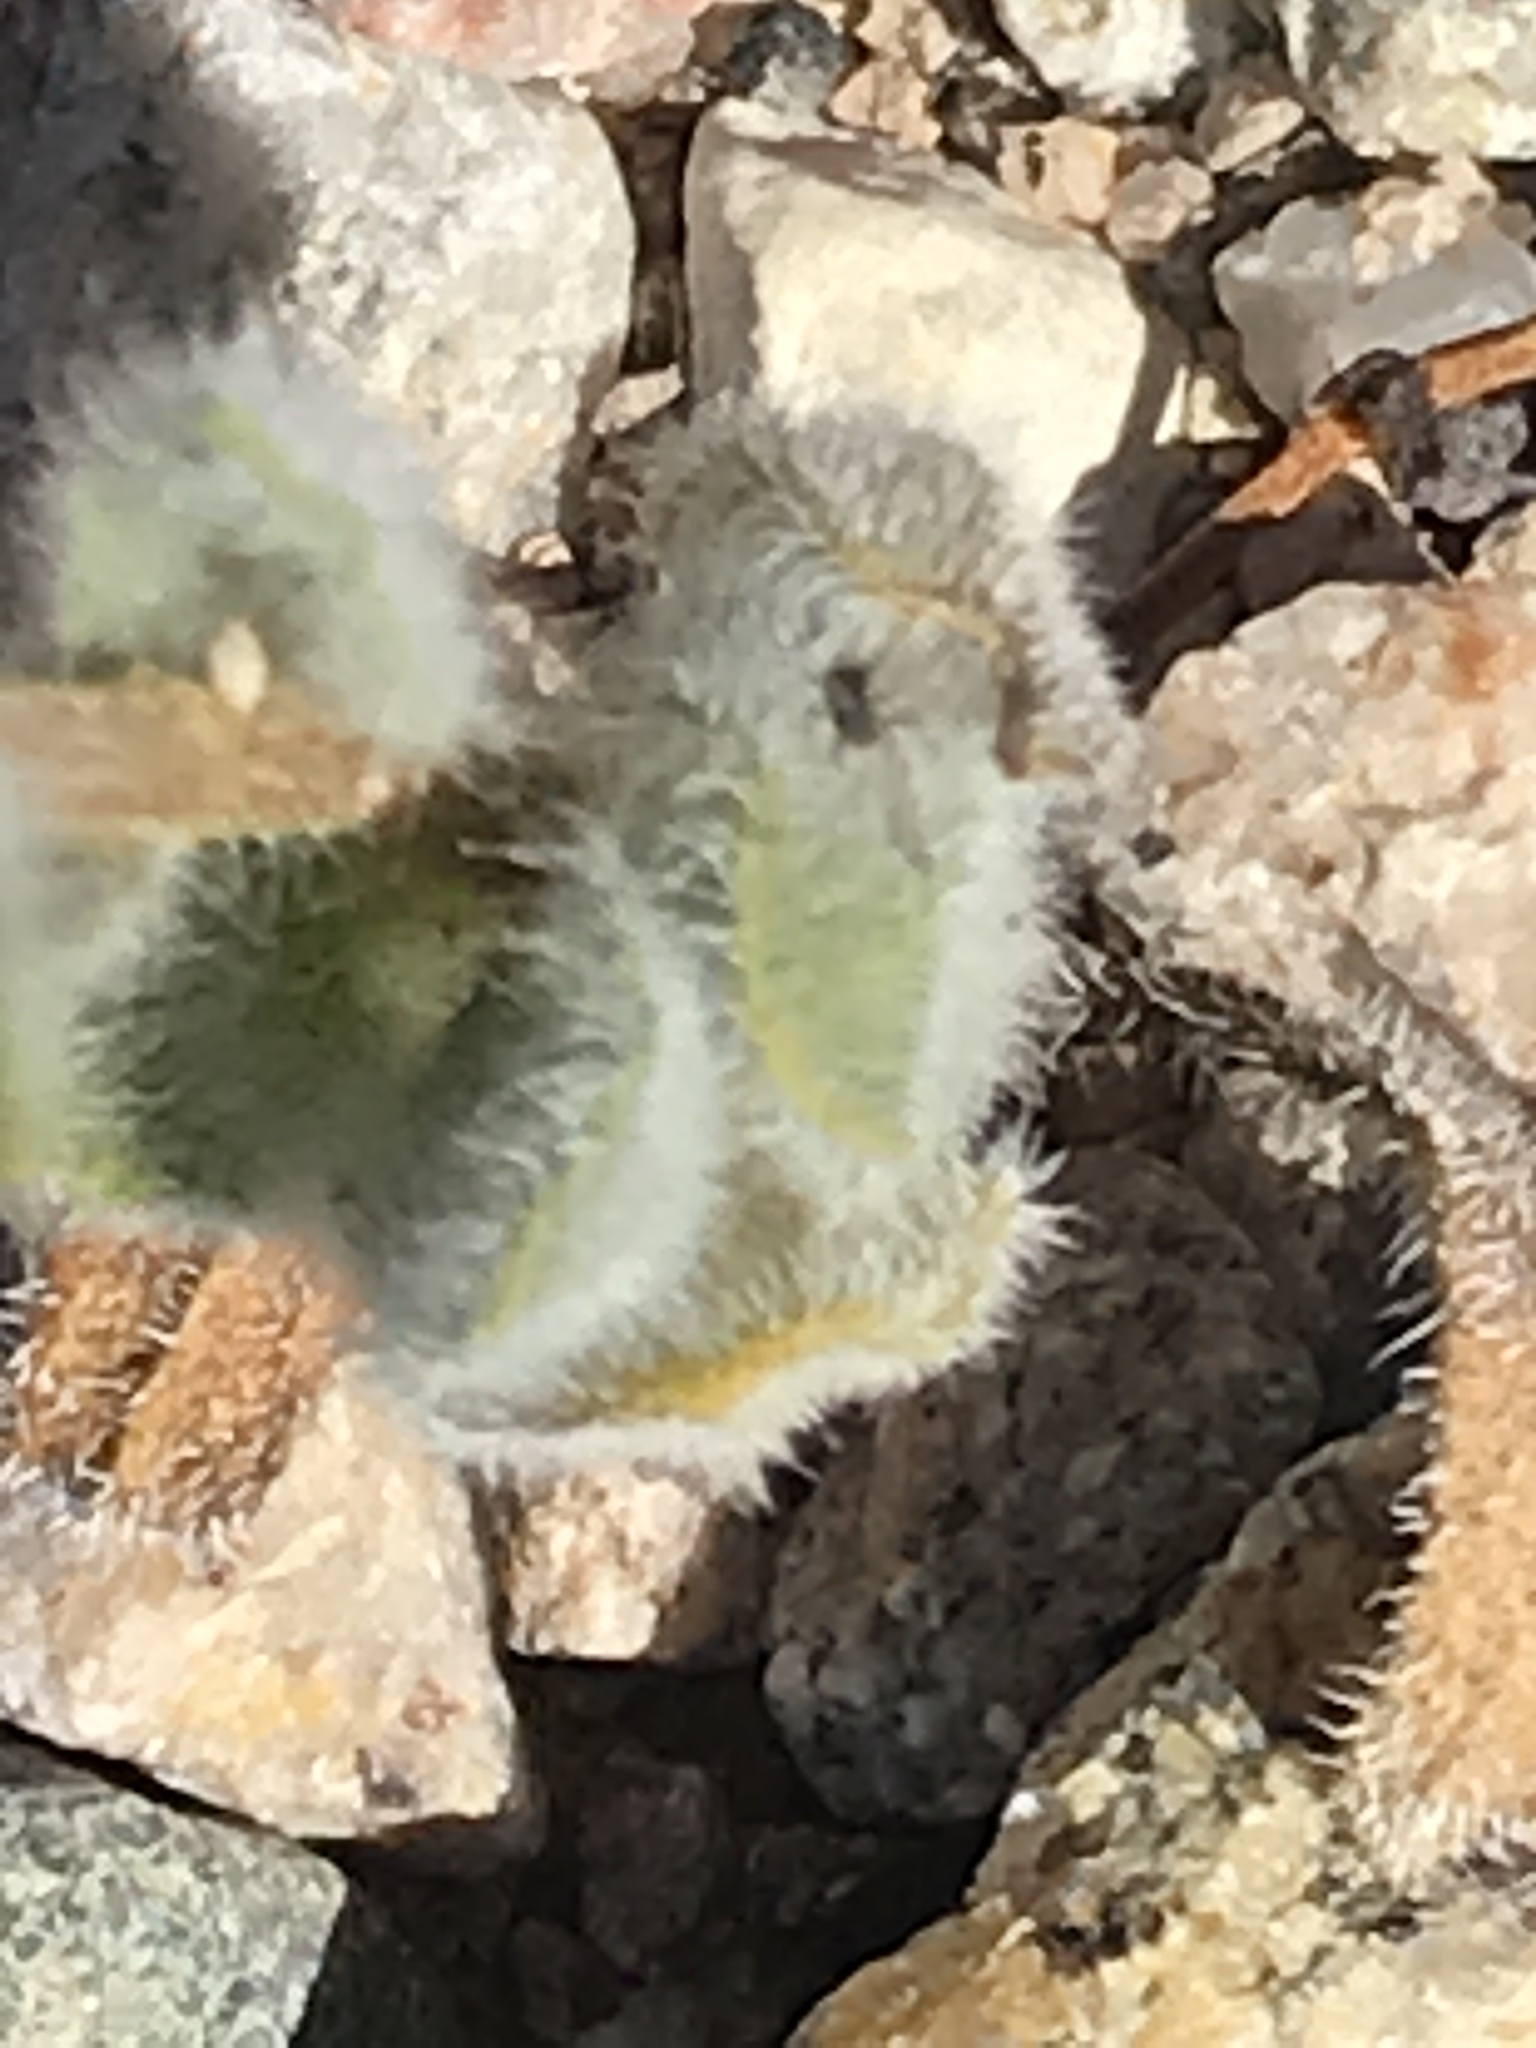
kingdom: Plantae
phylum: Tracheophyta
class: Magnoliopsida
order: Asterales
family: Asteraceae
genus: Geraea
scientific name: Geraea canescens
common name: Desert-gold
